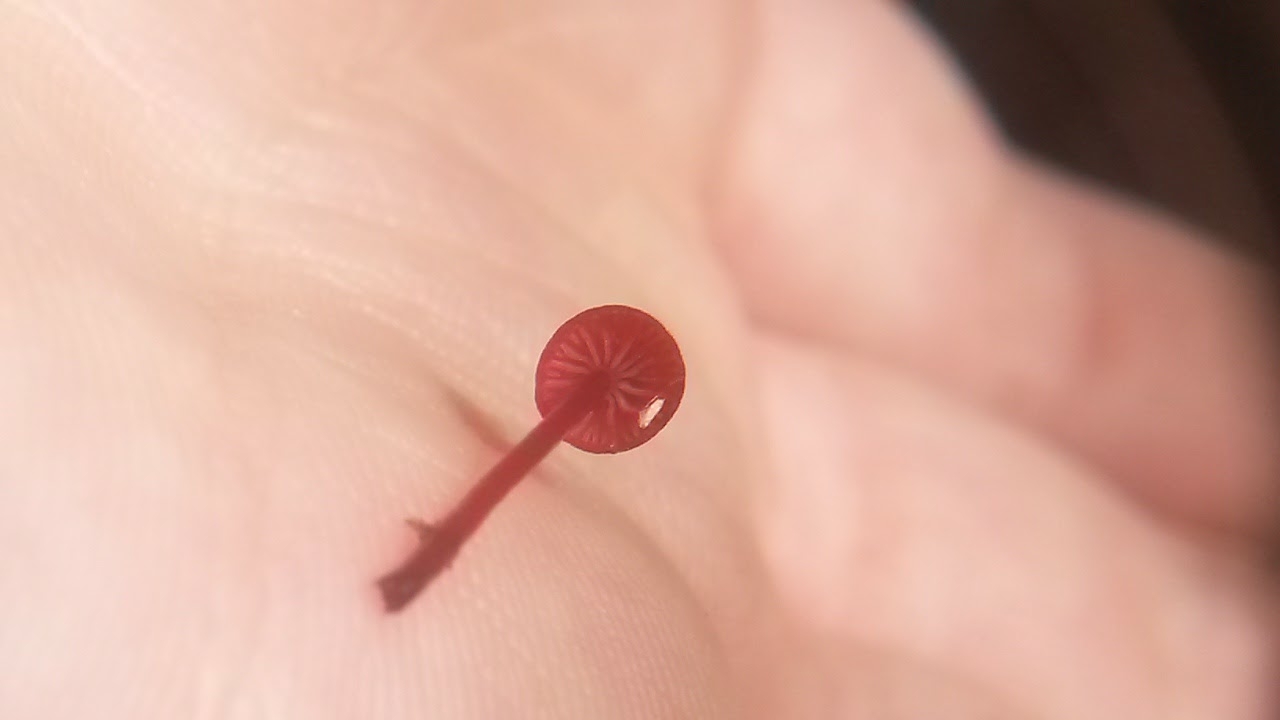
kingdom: Fungi
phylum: Basidiomycota
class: Agaricomycetes
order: Agaricales
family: Mycenaceae
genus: Cruentomycena
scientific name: Cruentomycena viscidocruenta
